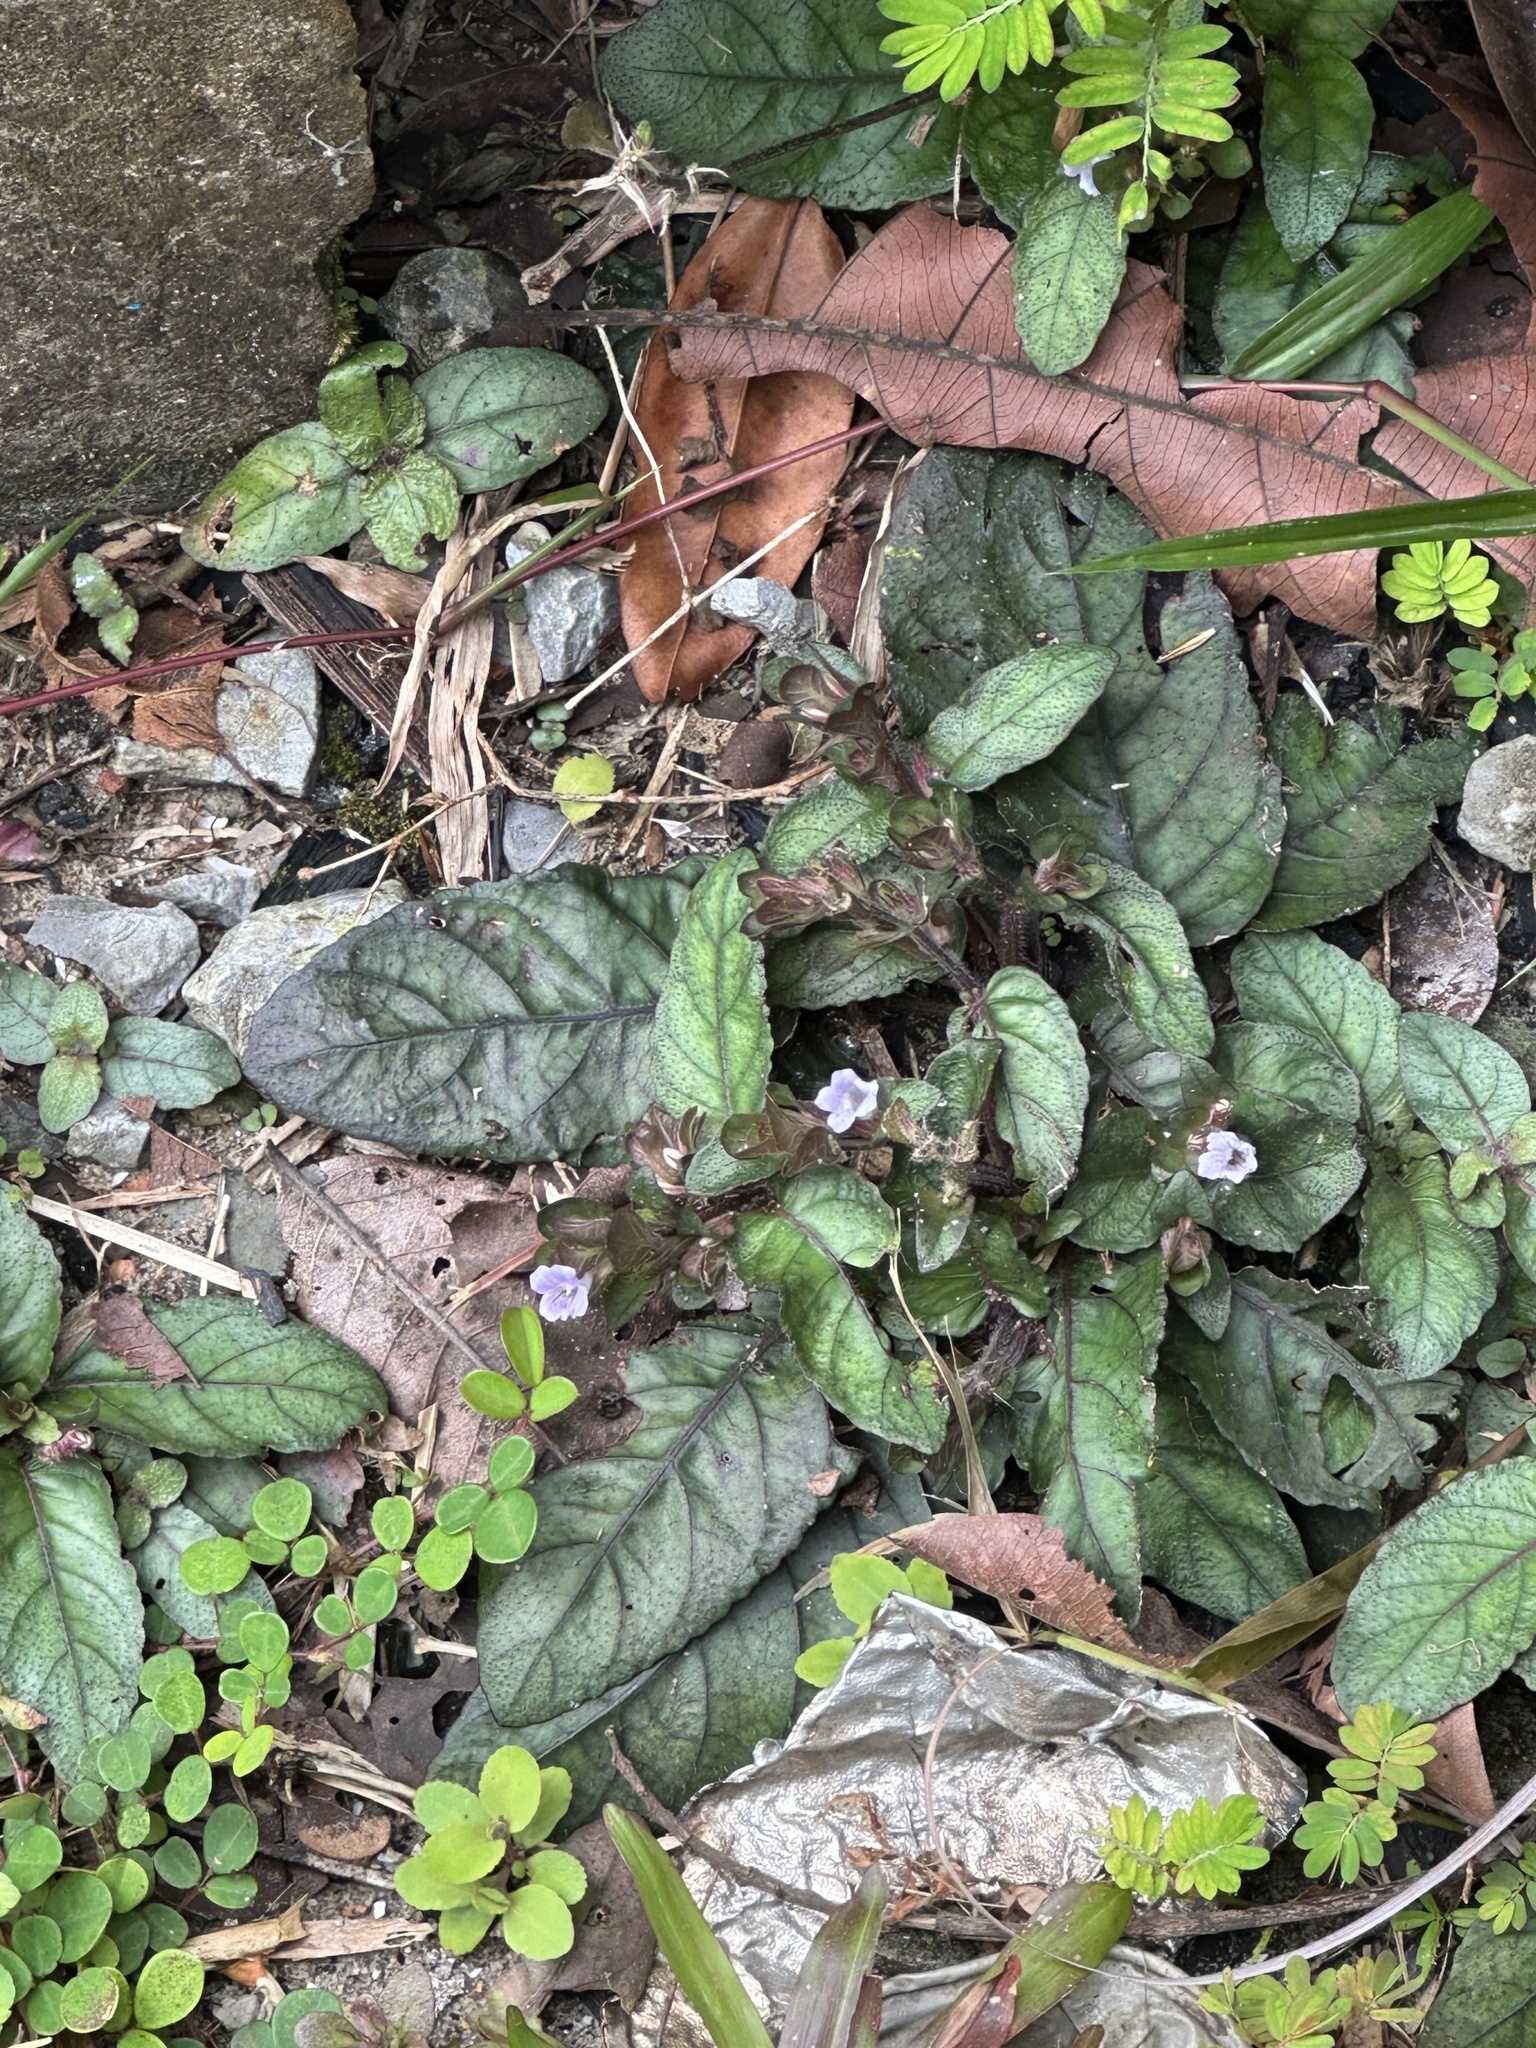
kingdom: Plantae
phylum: Tracheophyta
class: Magnoliopsida
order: Lamiales
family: Acanthaceae
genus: Strobilanthes
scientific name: Strobilanthes reptans
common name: Acanthaceae
